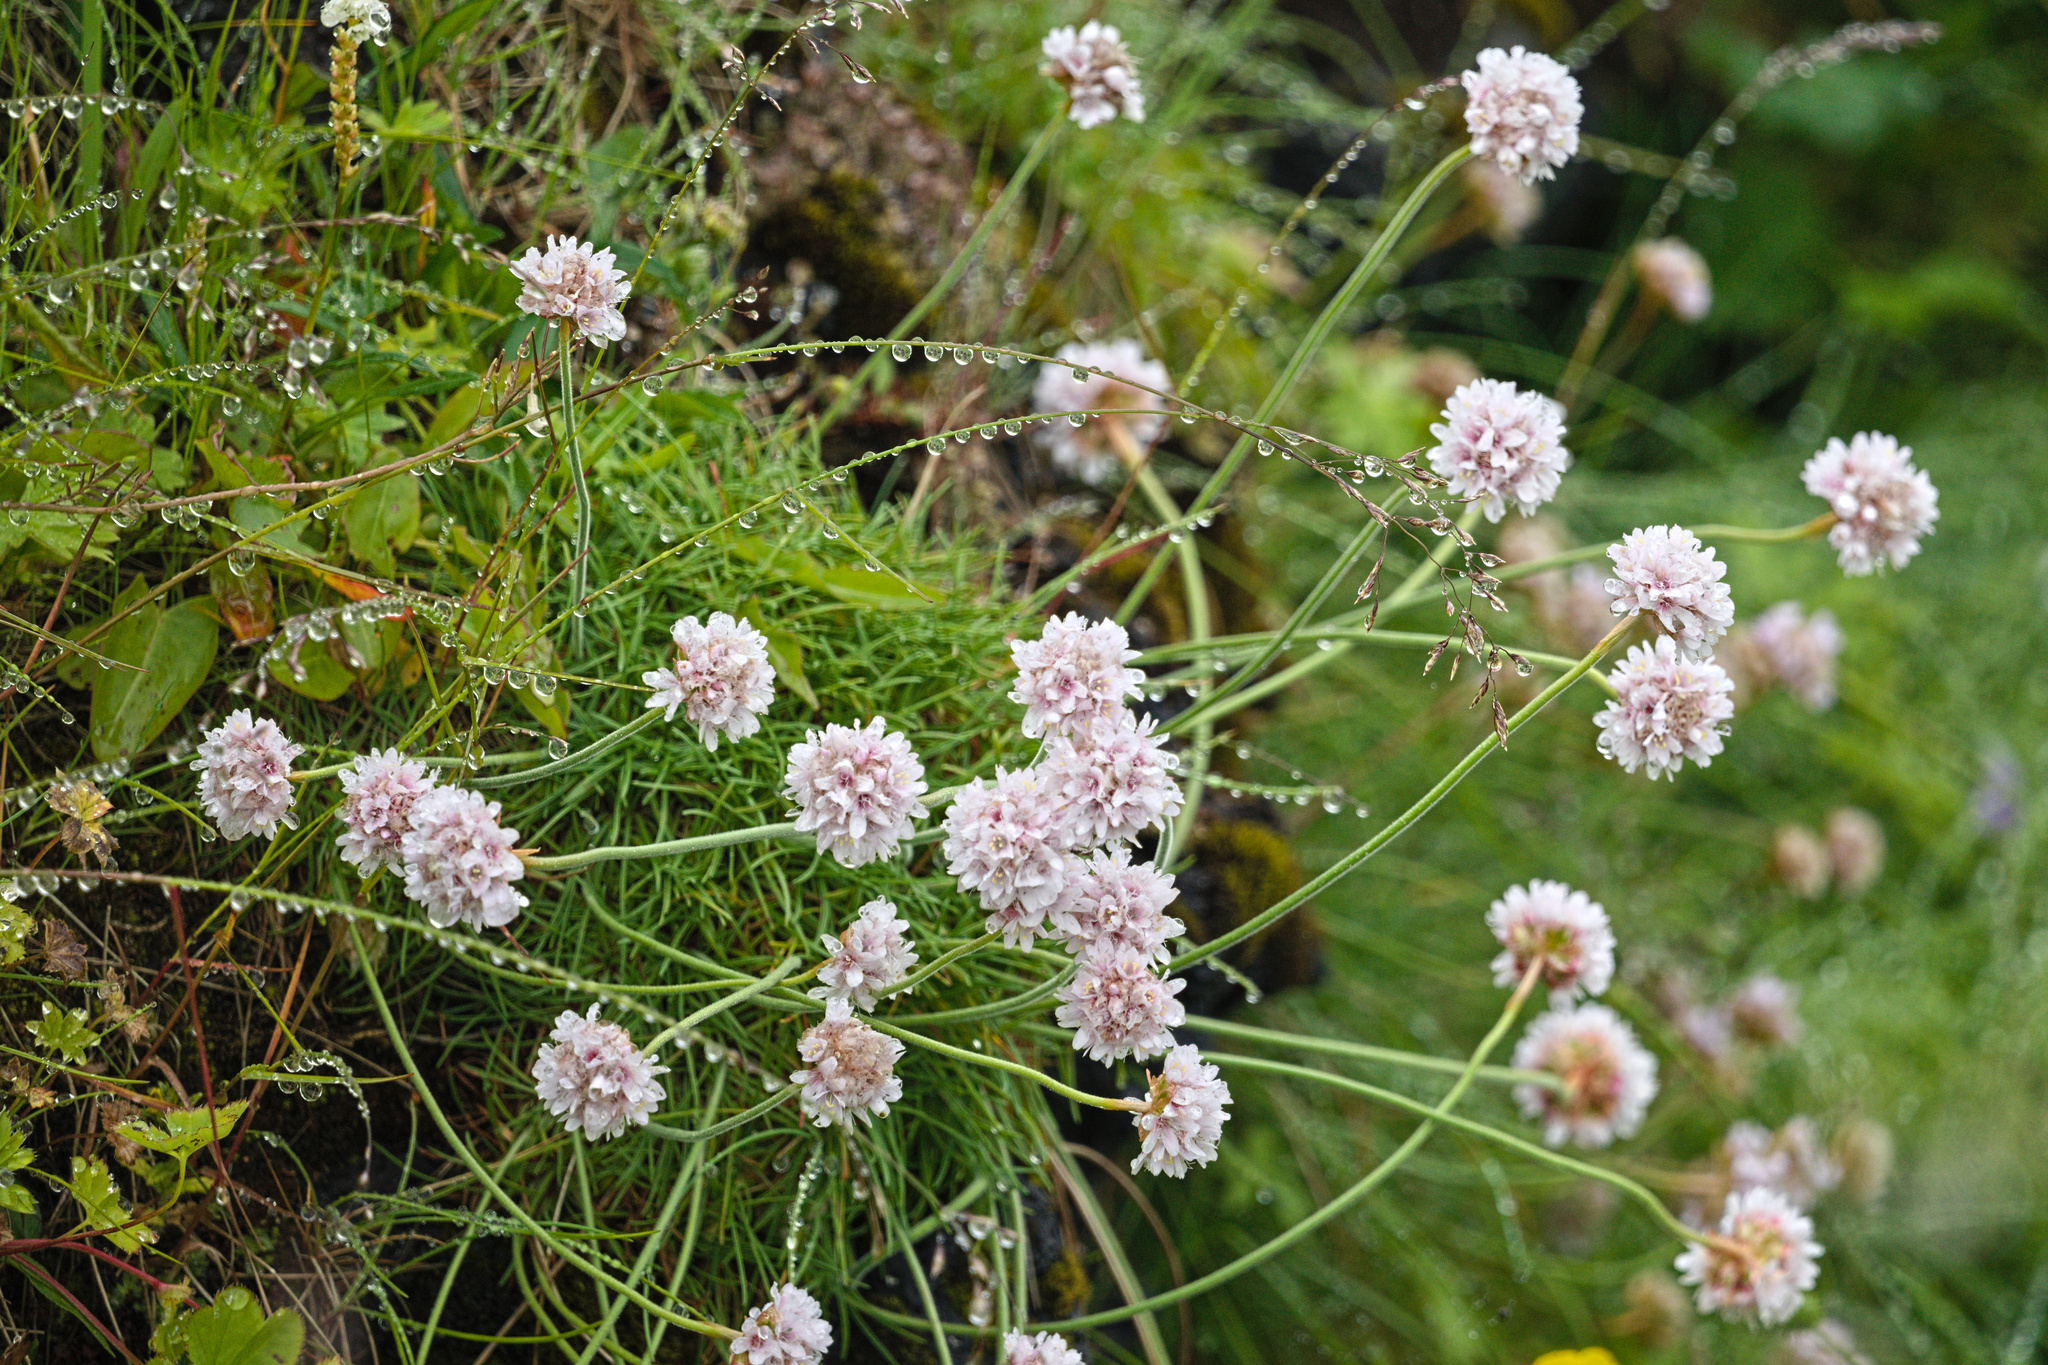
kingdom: Plantae
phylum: Tracheophyta
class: Magnoliopsida
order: Caryophyllales
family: Plumbaginaceae
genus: Armeria
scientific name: Armeria maritima
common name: Thrift
